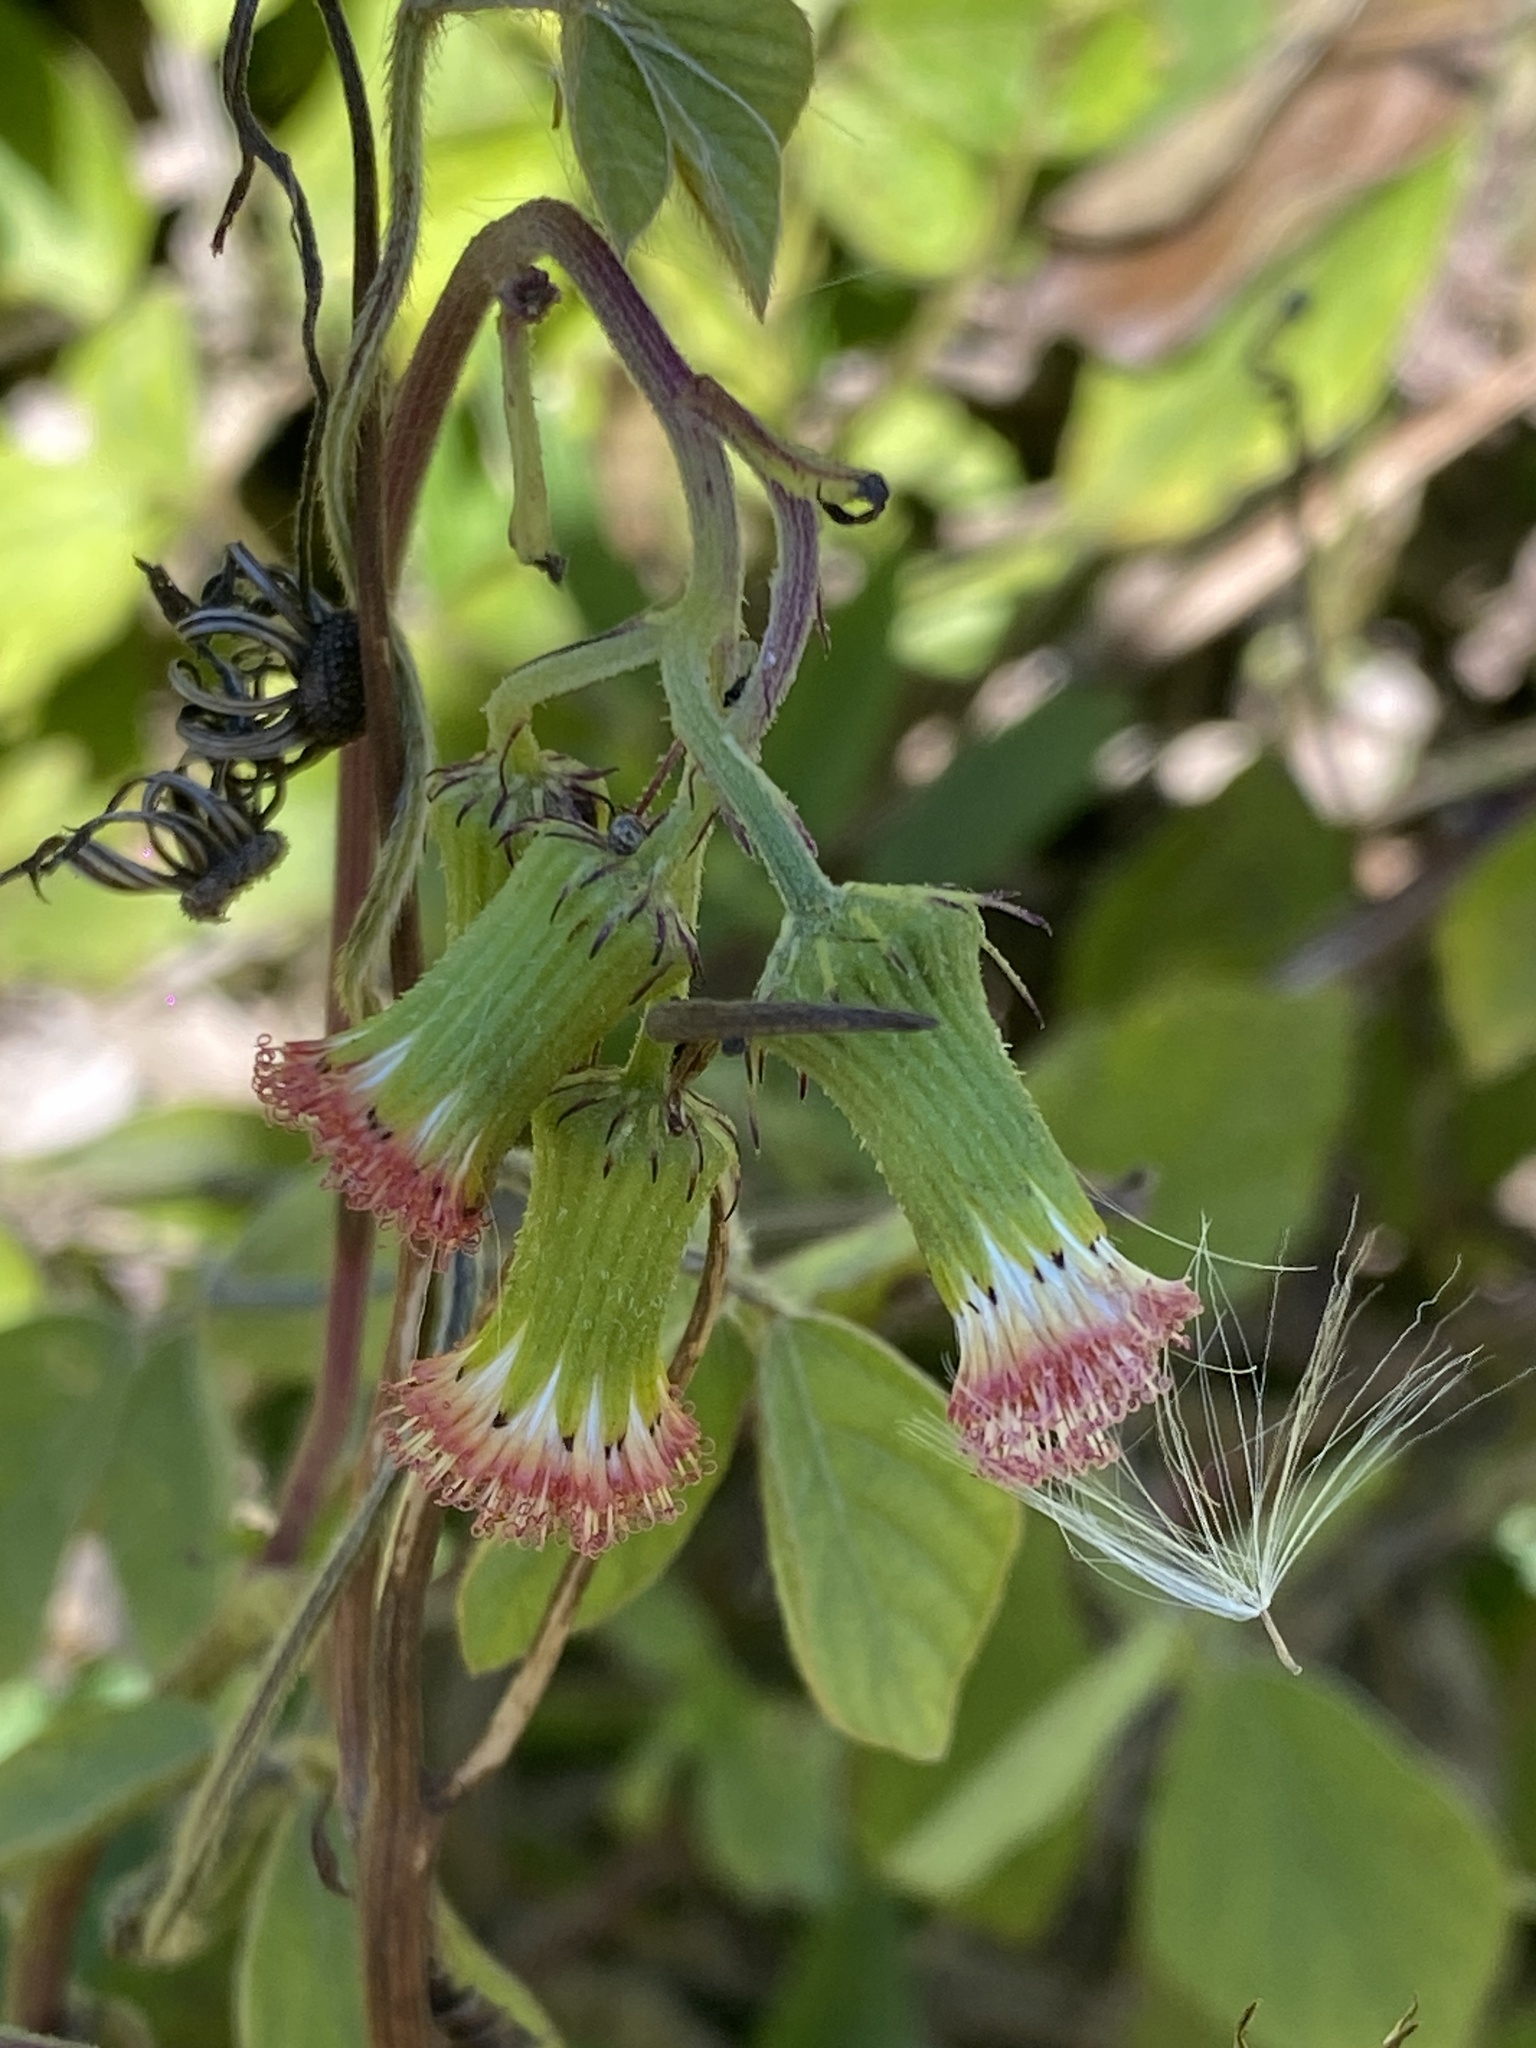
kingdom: Plantae
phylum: Tracheophyta
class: Magnoliopsida
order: Asterales
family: Asteraceae
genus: Crassocephalum
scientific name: Crassocephalum crepidioides
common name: Redflower ragleaf
